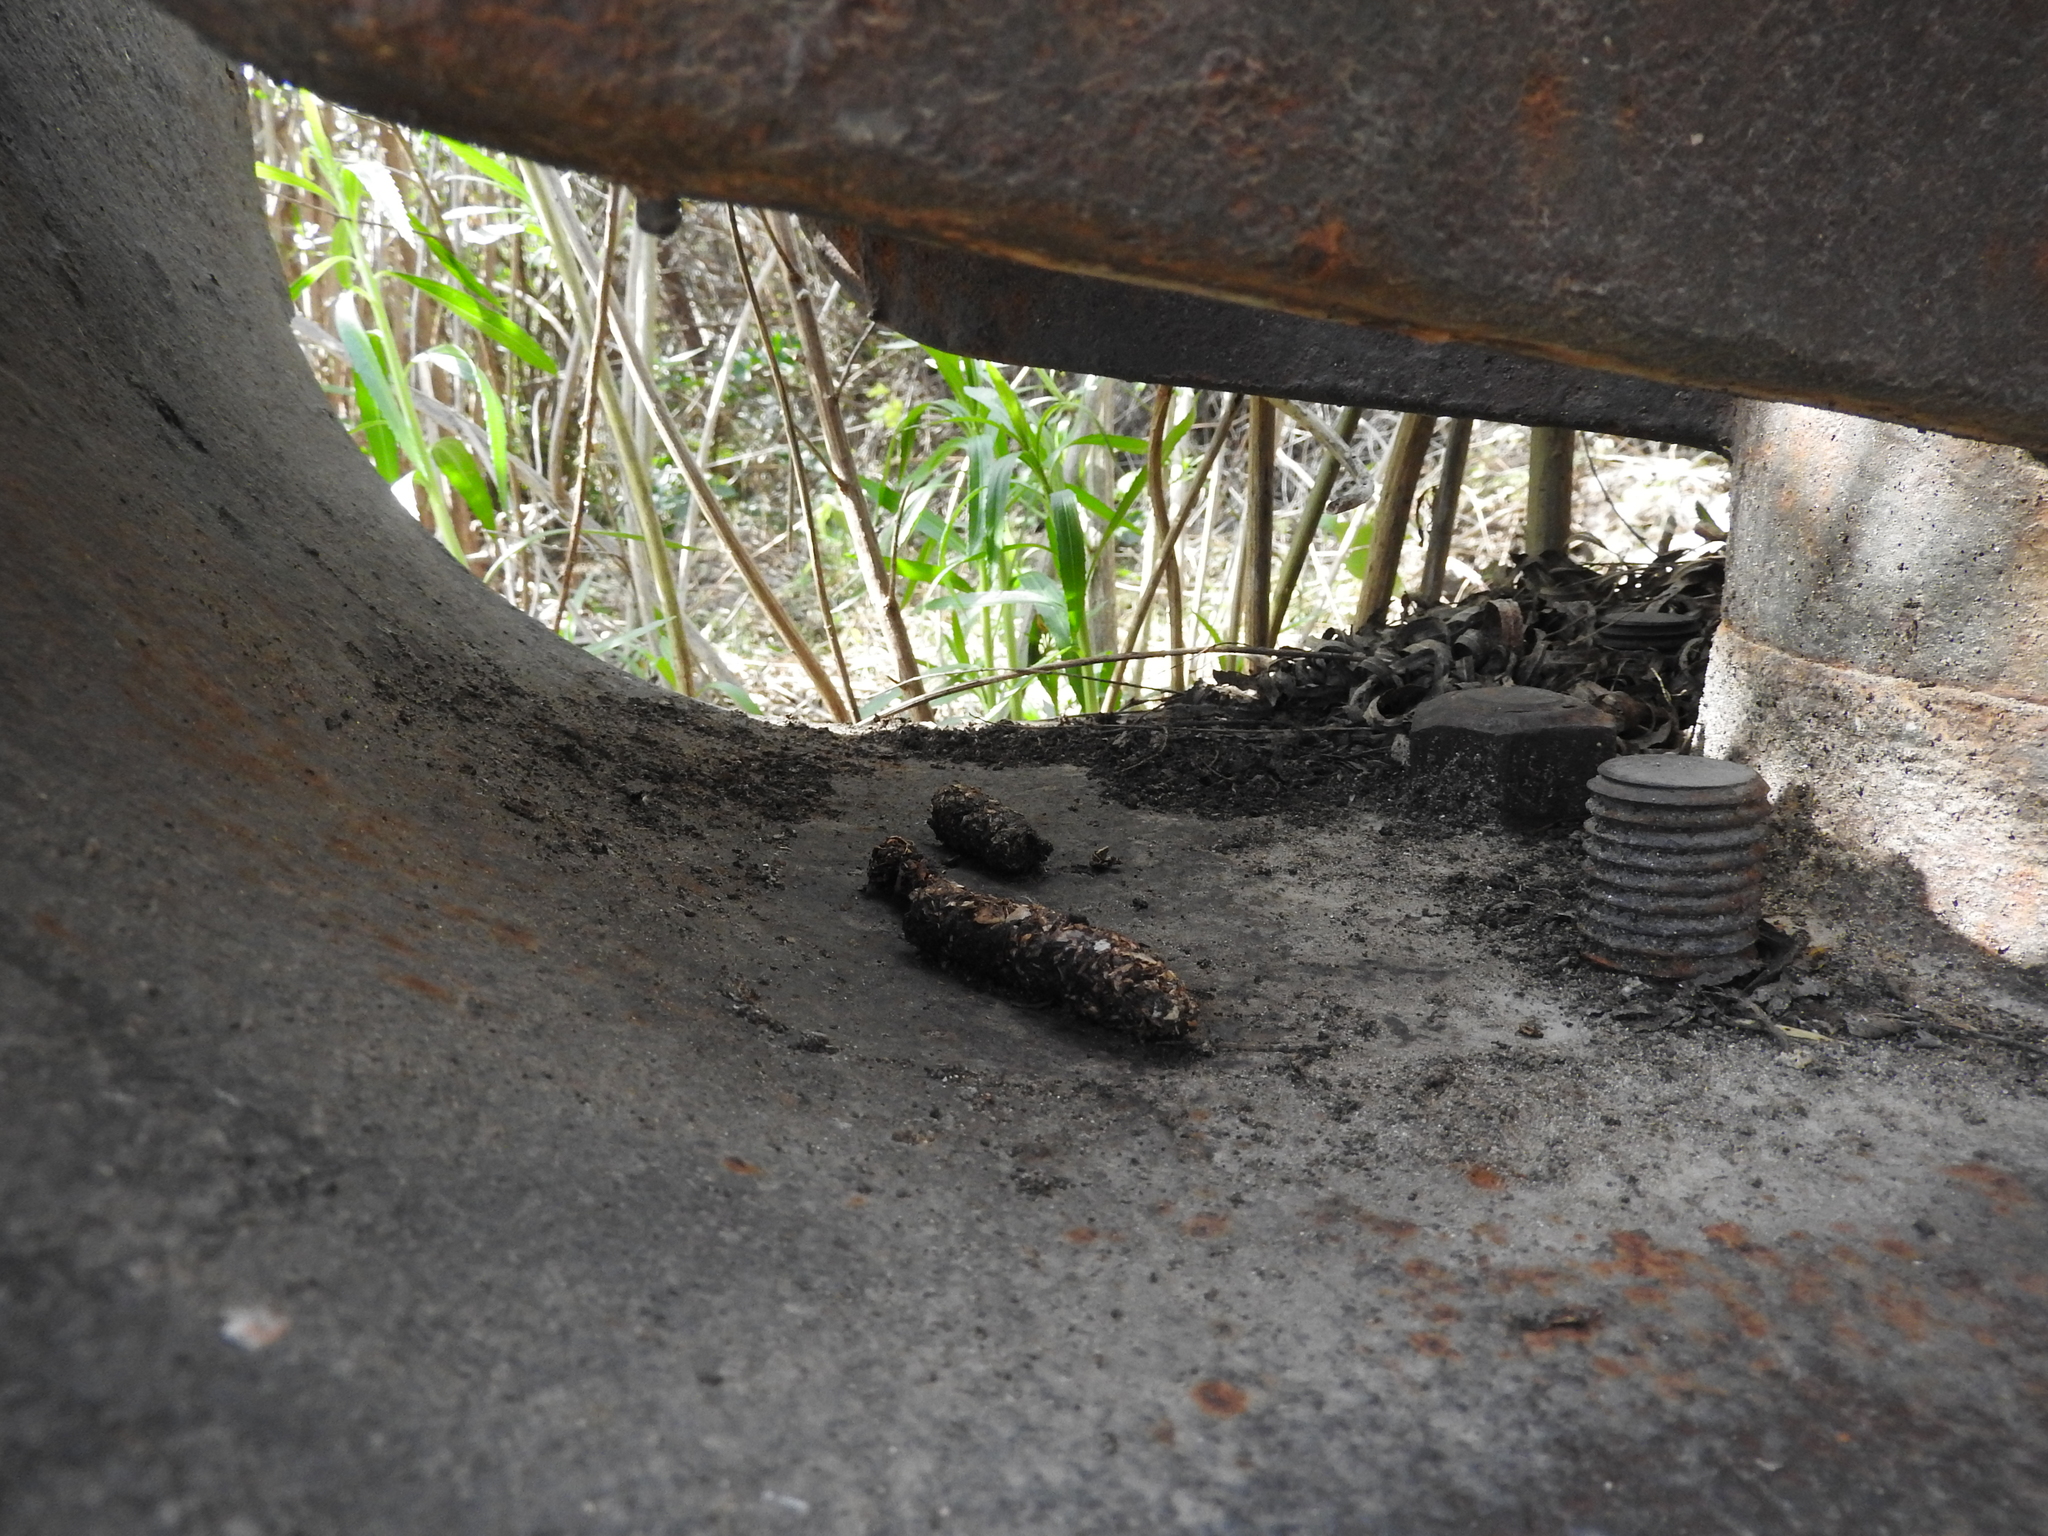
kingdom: Animalia
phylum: Chordata
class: Mammalia
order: Carnivora
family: Procyonidae
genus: Procyon
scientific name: Procyon lotor
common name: Raccoon
